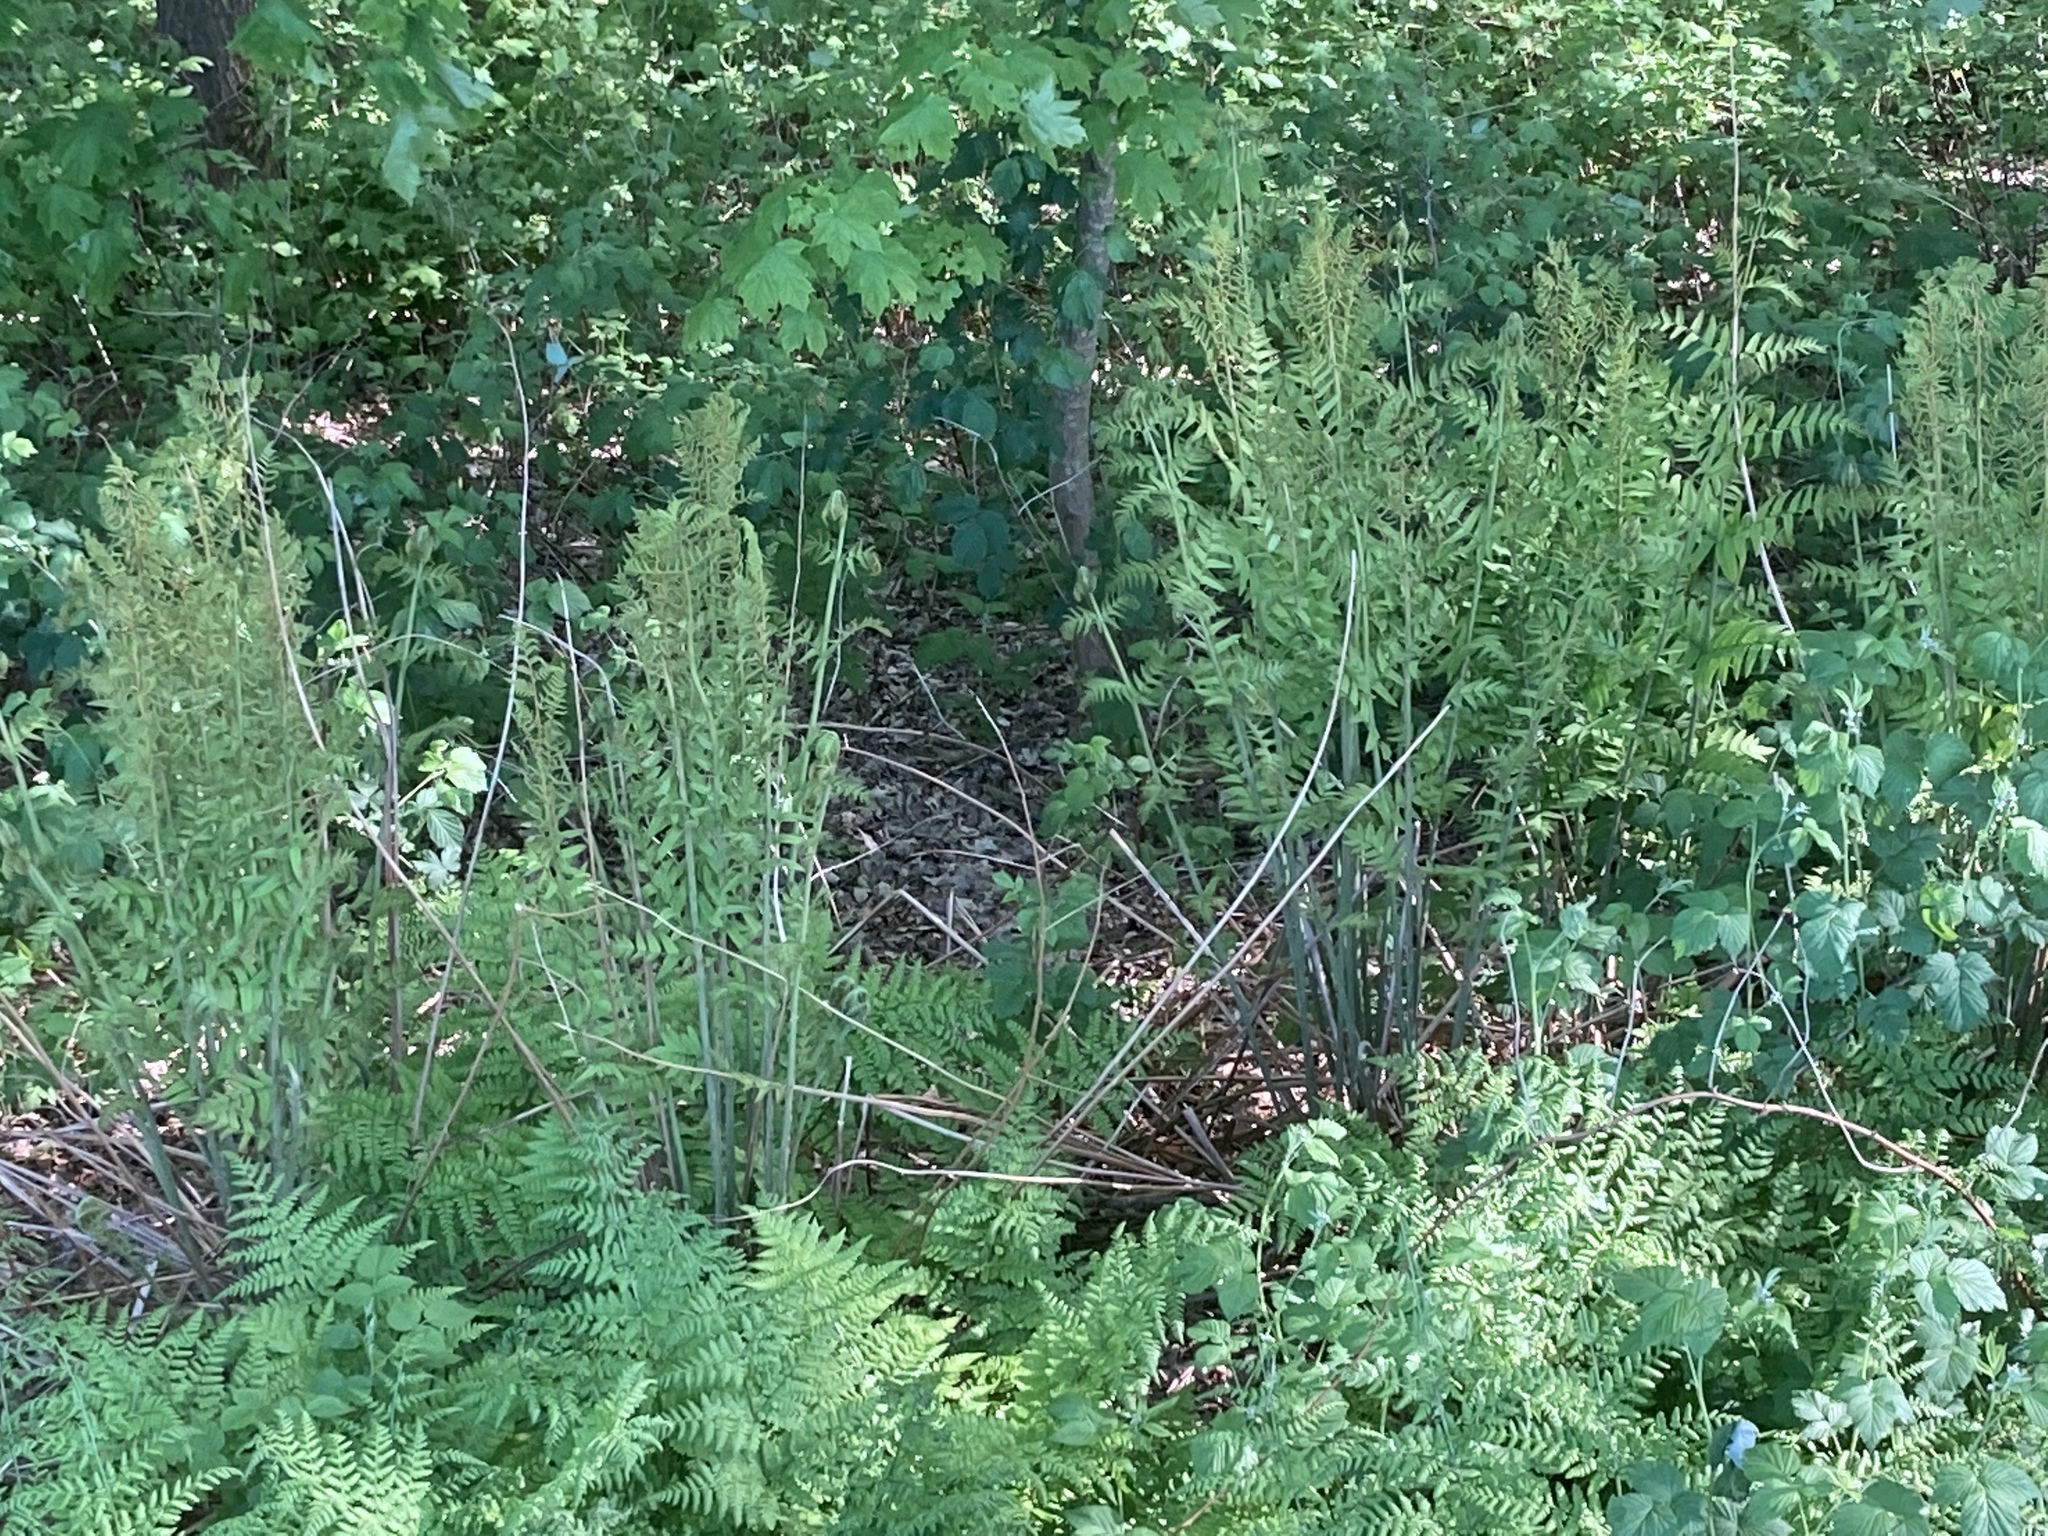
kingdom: Plantae
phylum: Tracheophyta
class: Polypodiopsida
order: Osmundales
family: Osmundaceae
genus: Osmunda
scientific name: Osmunda regalis
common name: Royal fern
